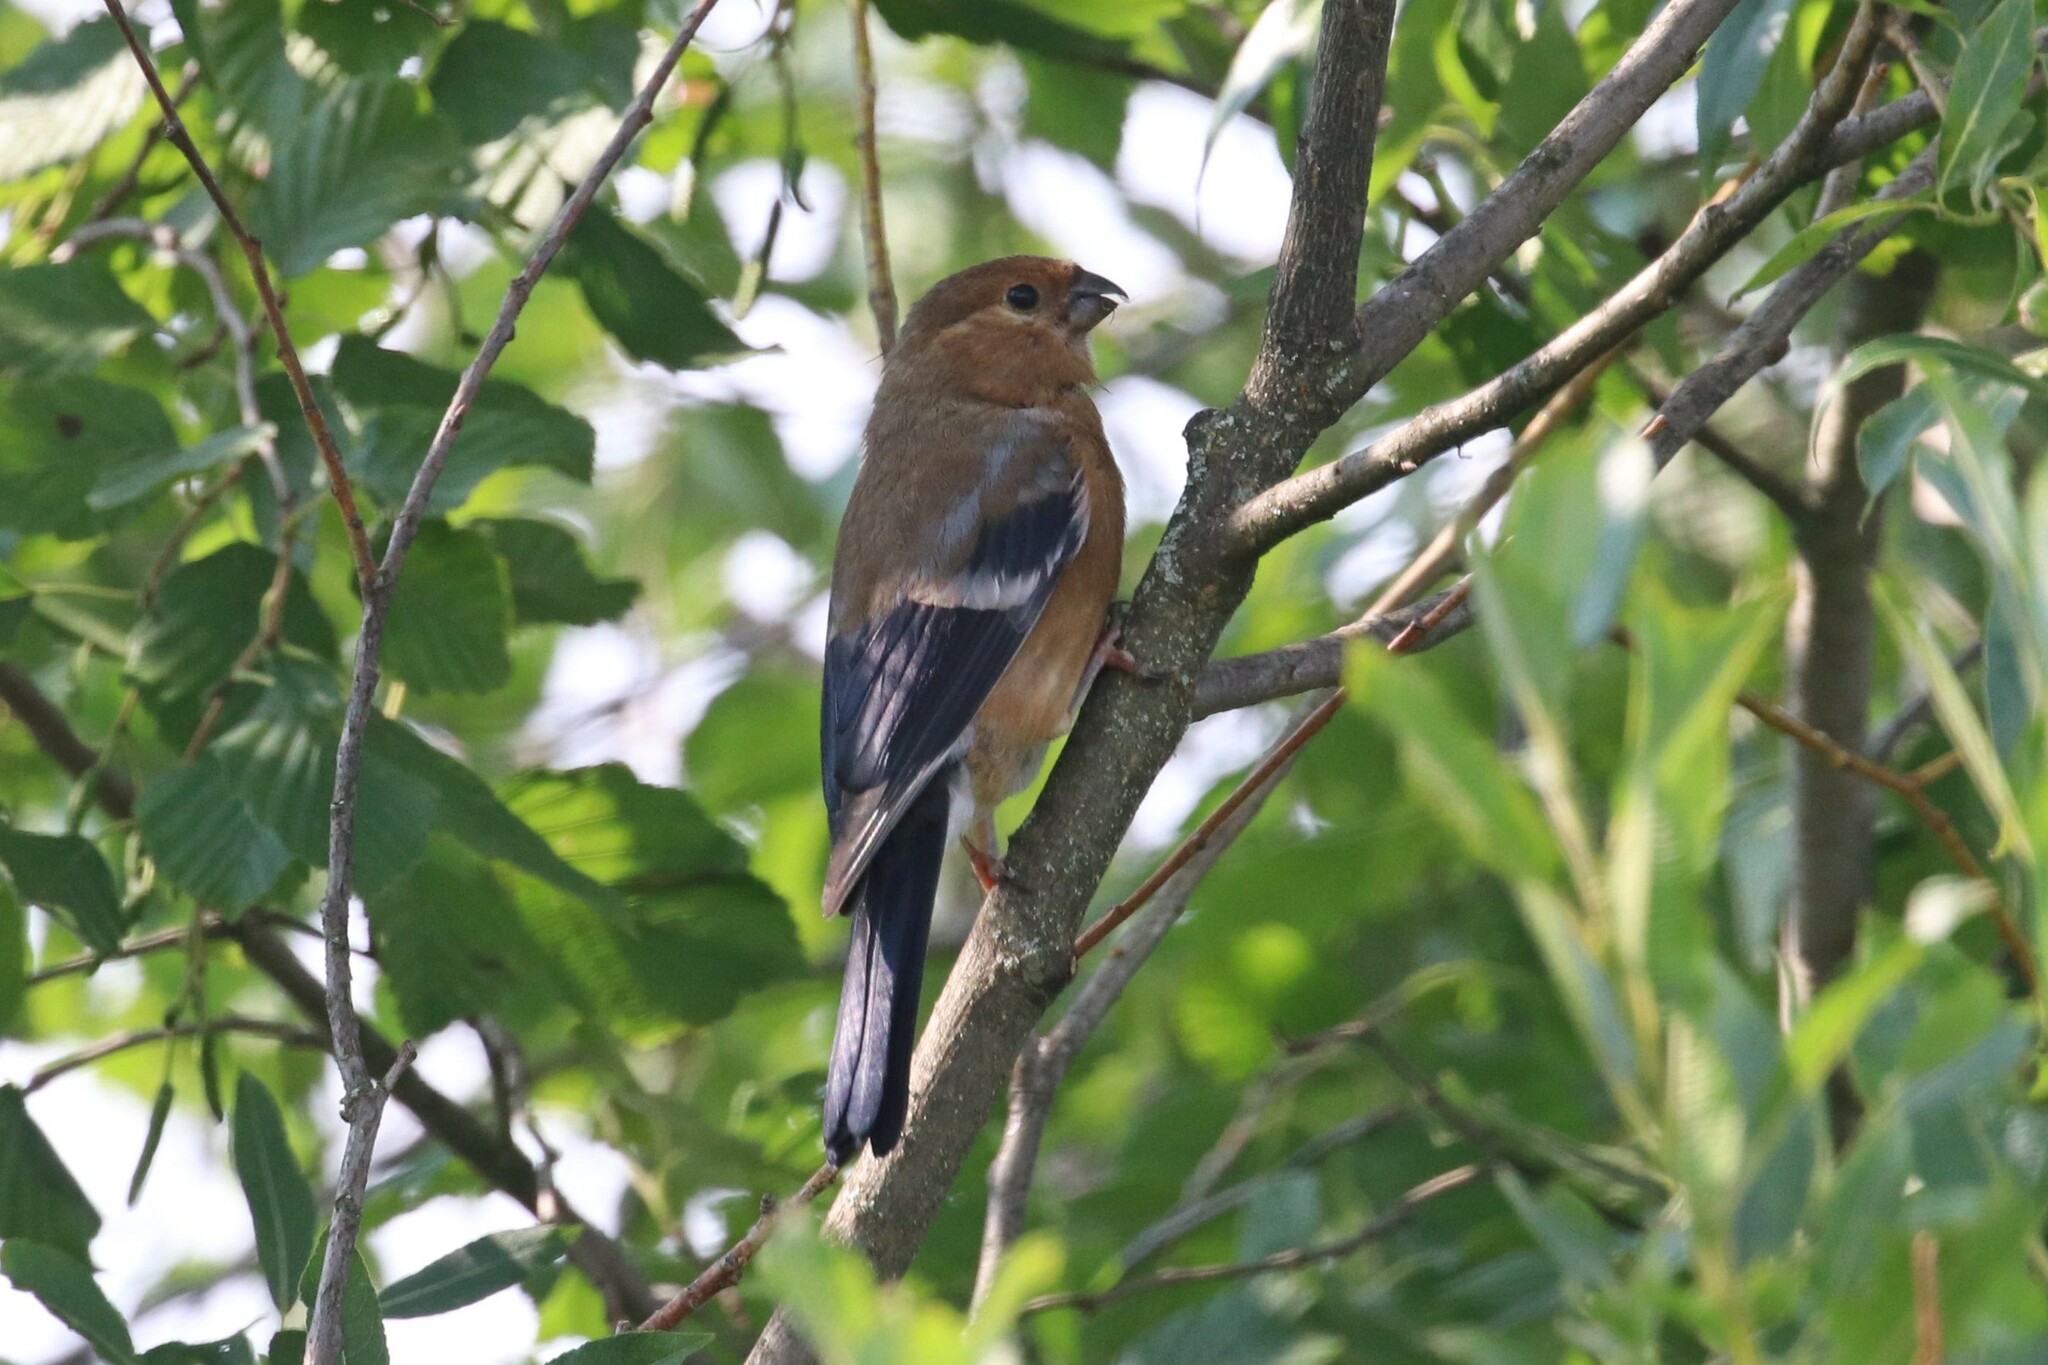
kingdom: Animalia
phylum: Chordata
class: Aves
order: Passeriformes
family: Fringillidae
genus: Pyrrhula
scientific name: Pyrrhula pyrrhula
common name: Eurasian bullfinch
